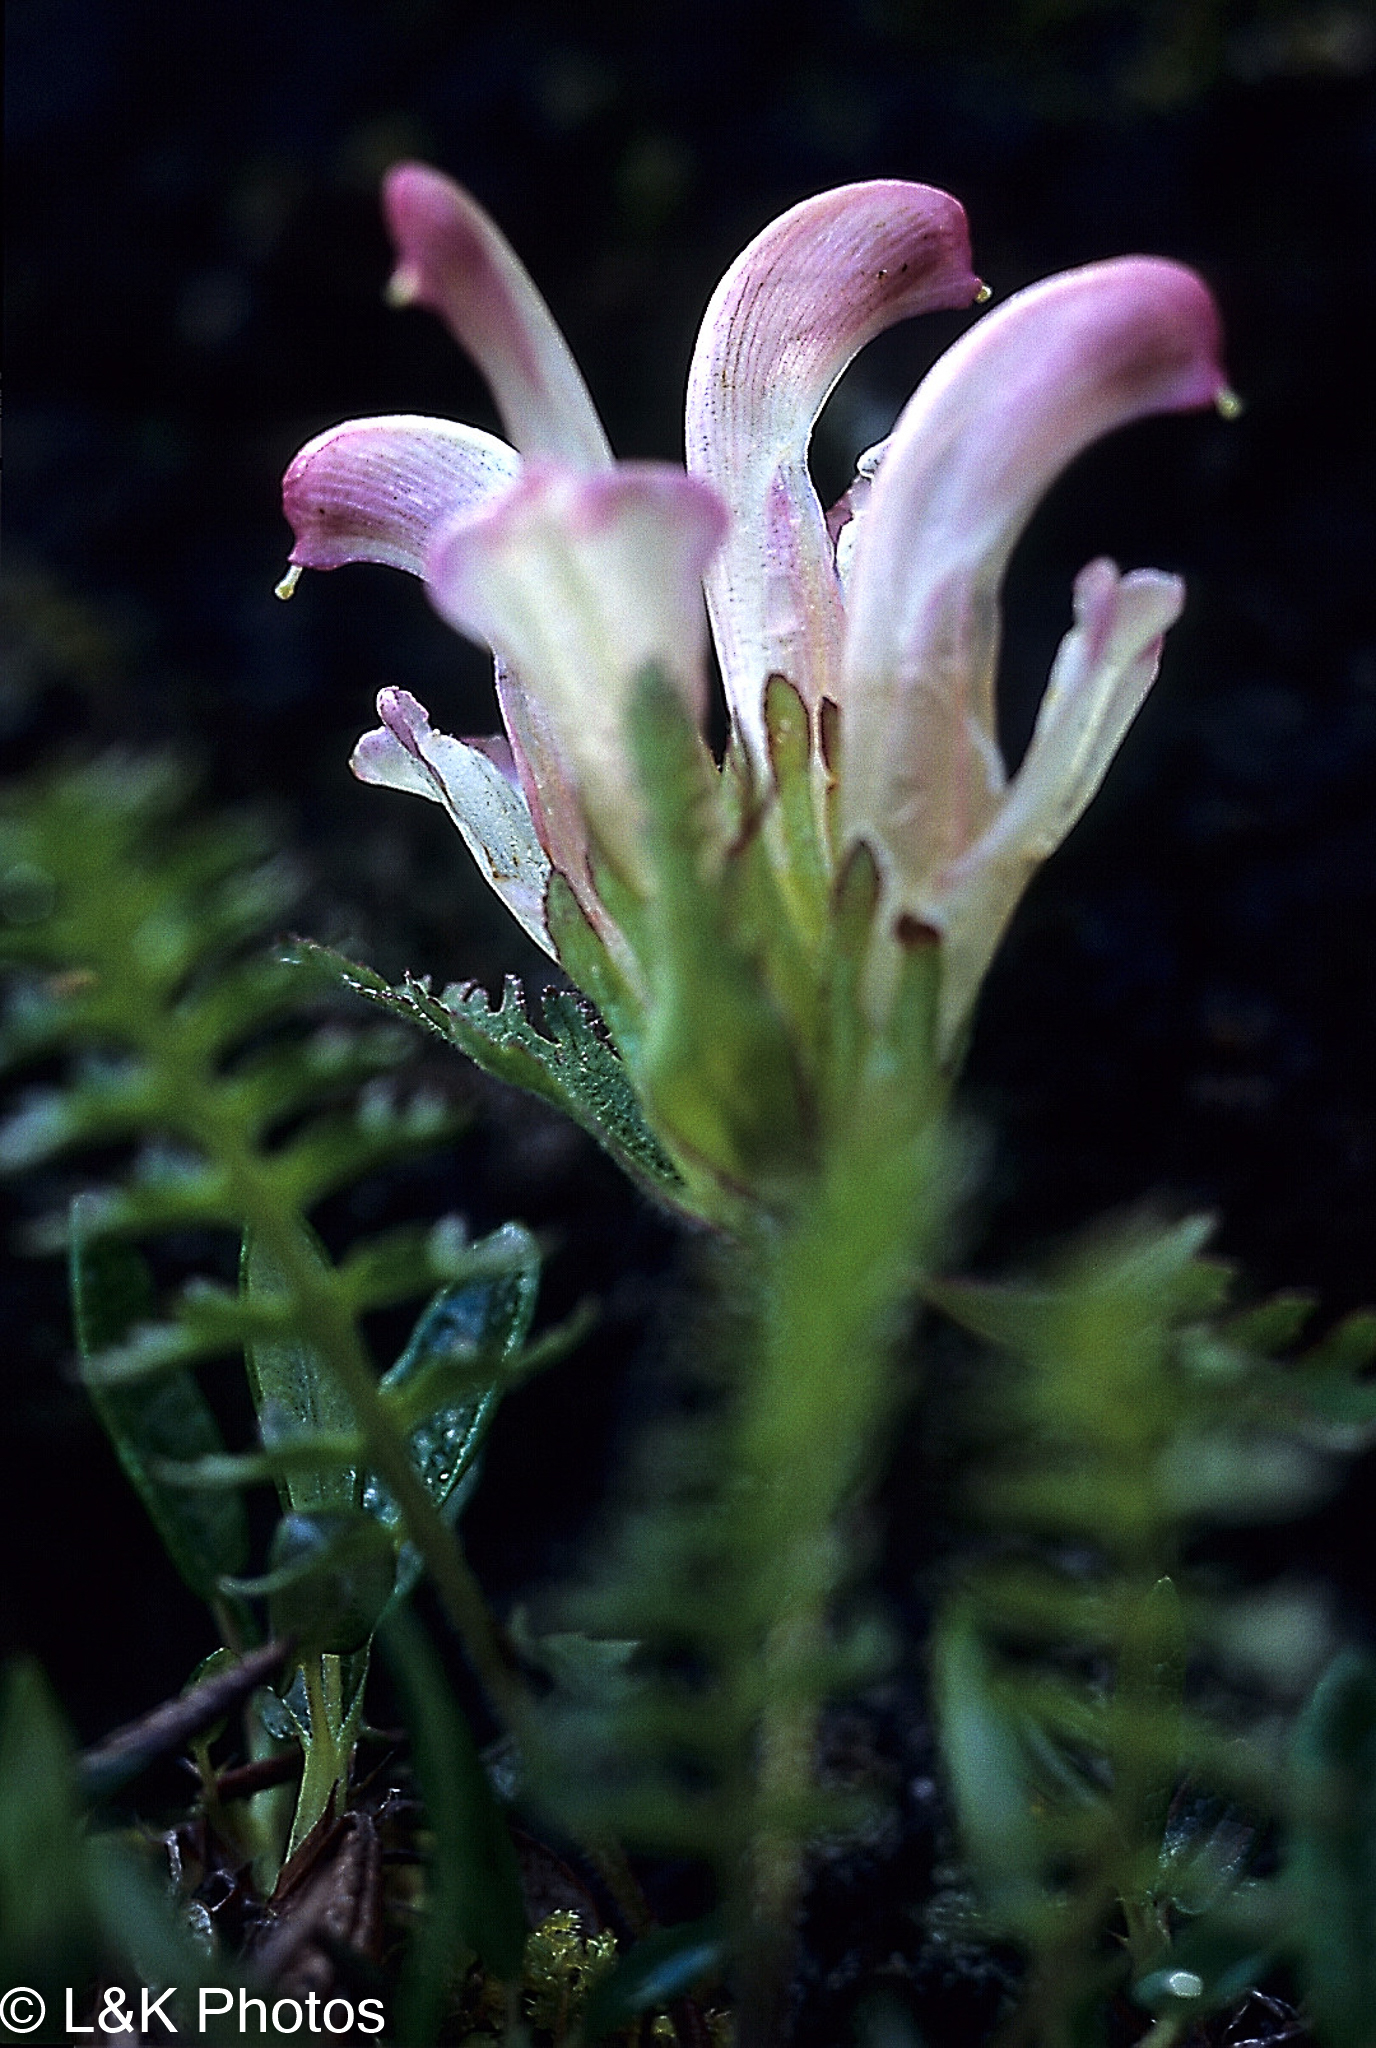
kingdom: Plantae
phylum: Tracheophyta
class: Magnoliopsida
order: Lamiales
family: Orobanchaceae
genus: Pedicularis
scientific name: Pedicularis capitata
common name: Capitate lousewort
